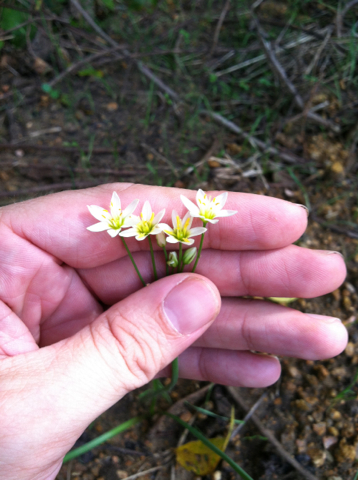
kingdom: Plantae
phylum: Tracheophyta
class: Liliopsida
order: Asparagales
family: Amaryllidaceae
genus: Nothoscordum
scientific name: Nothoscordum bivalve
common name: Crow-poison
